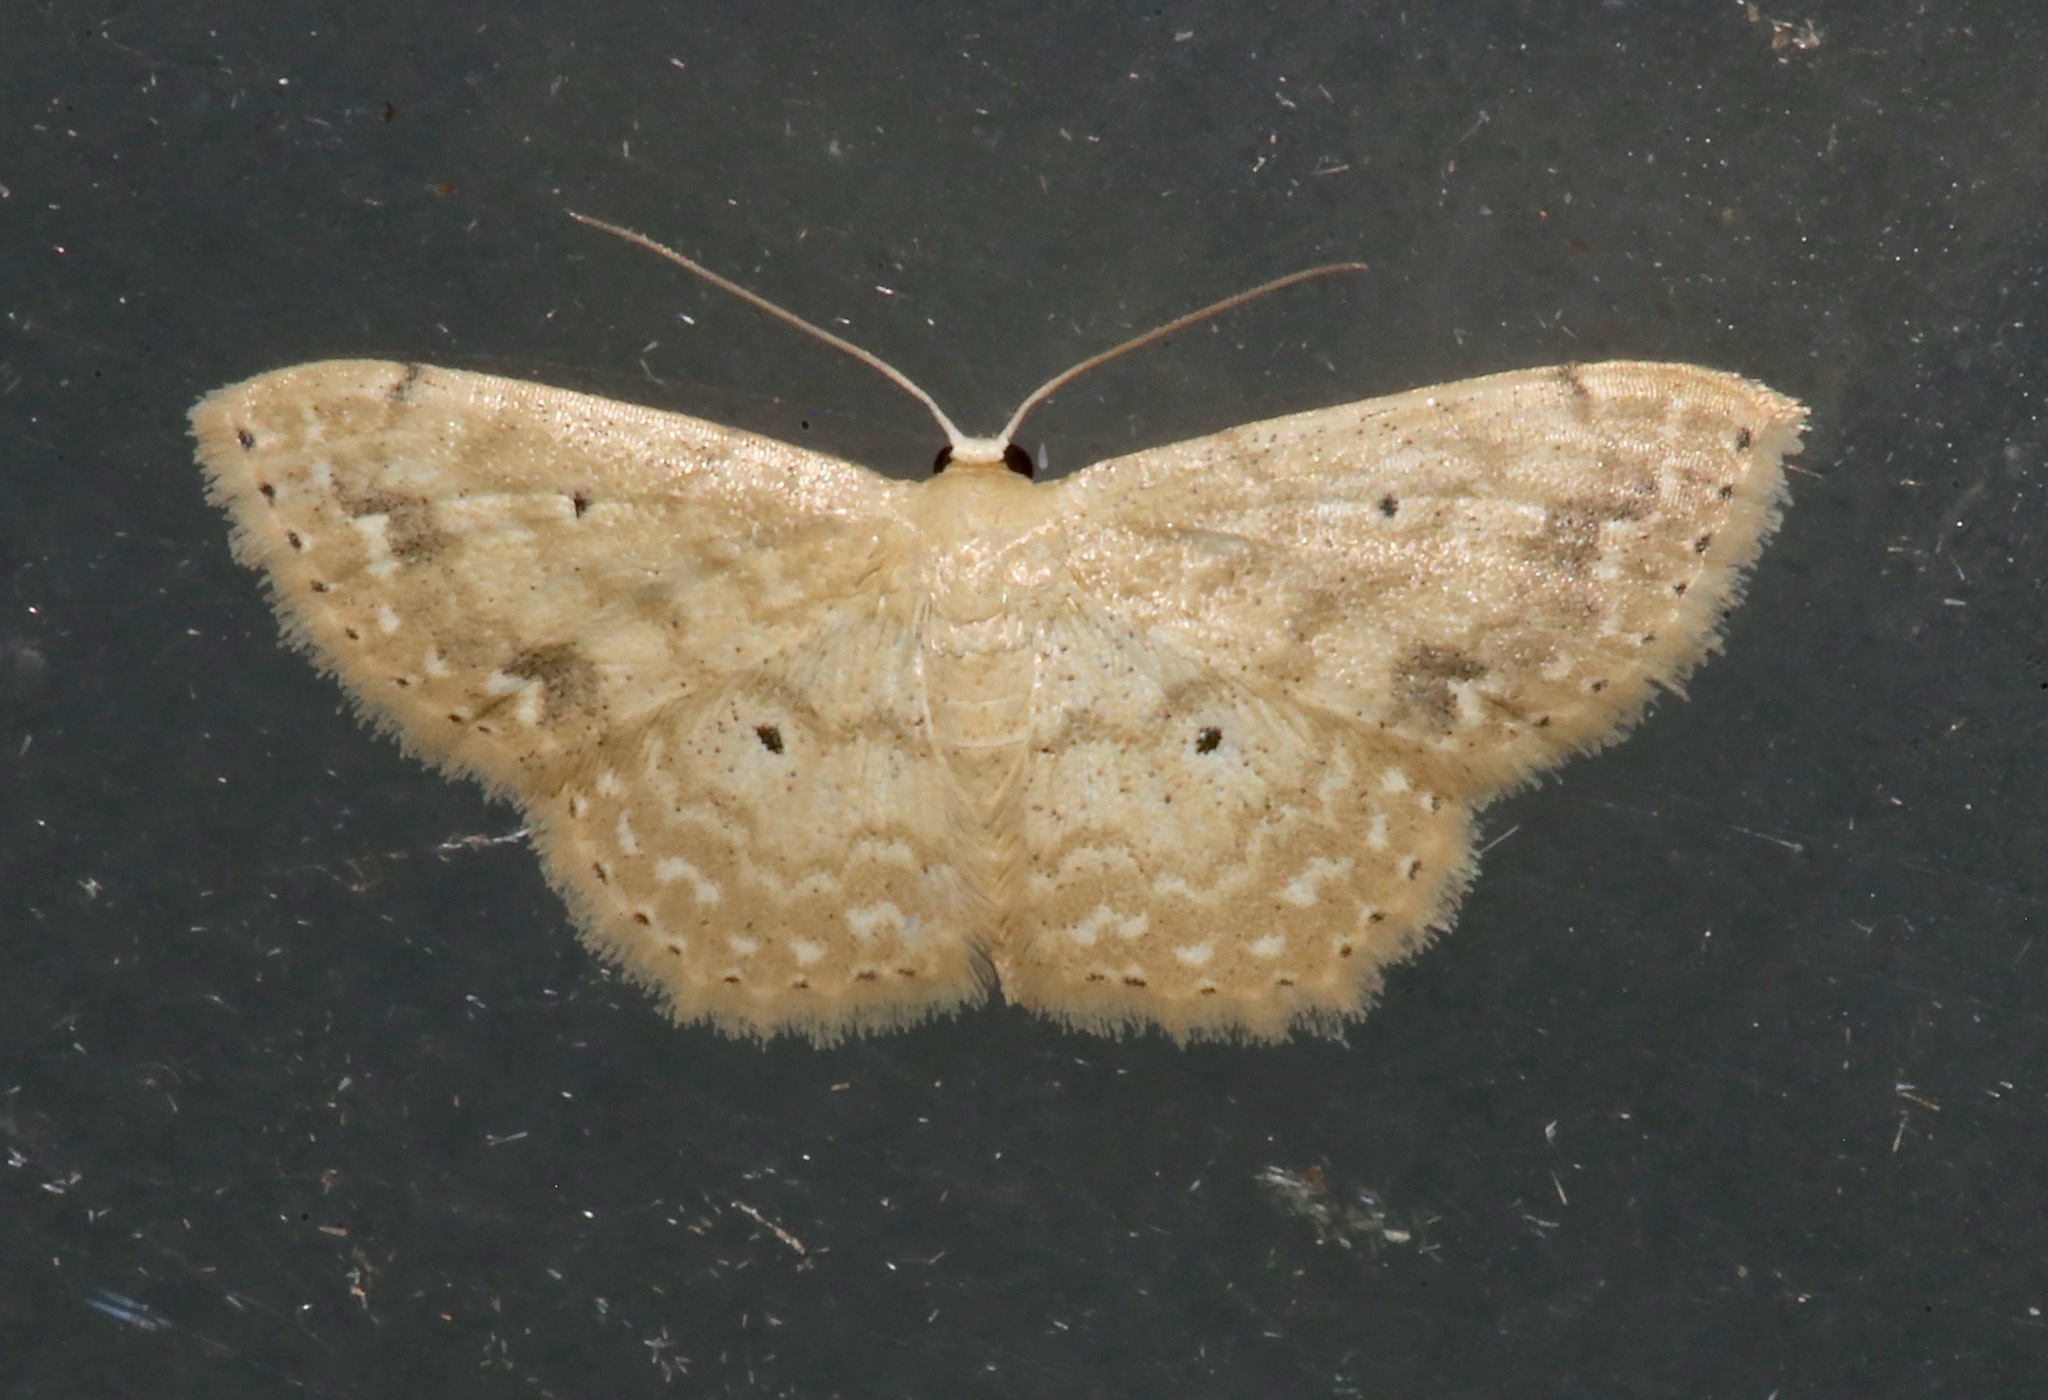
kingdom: Animalia
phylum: Arthropoda
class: Insecta
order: Lepidoptera
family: Geometridae
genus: Scopula
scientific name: Scopula compensata
